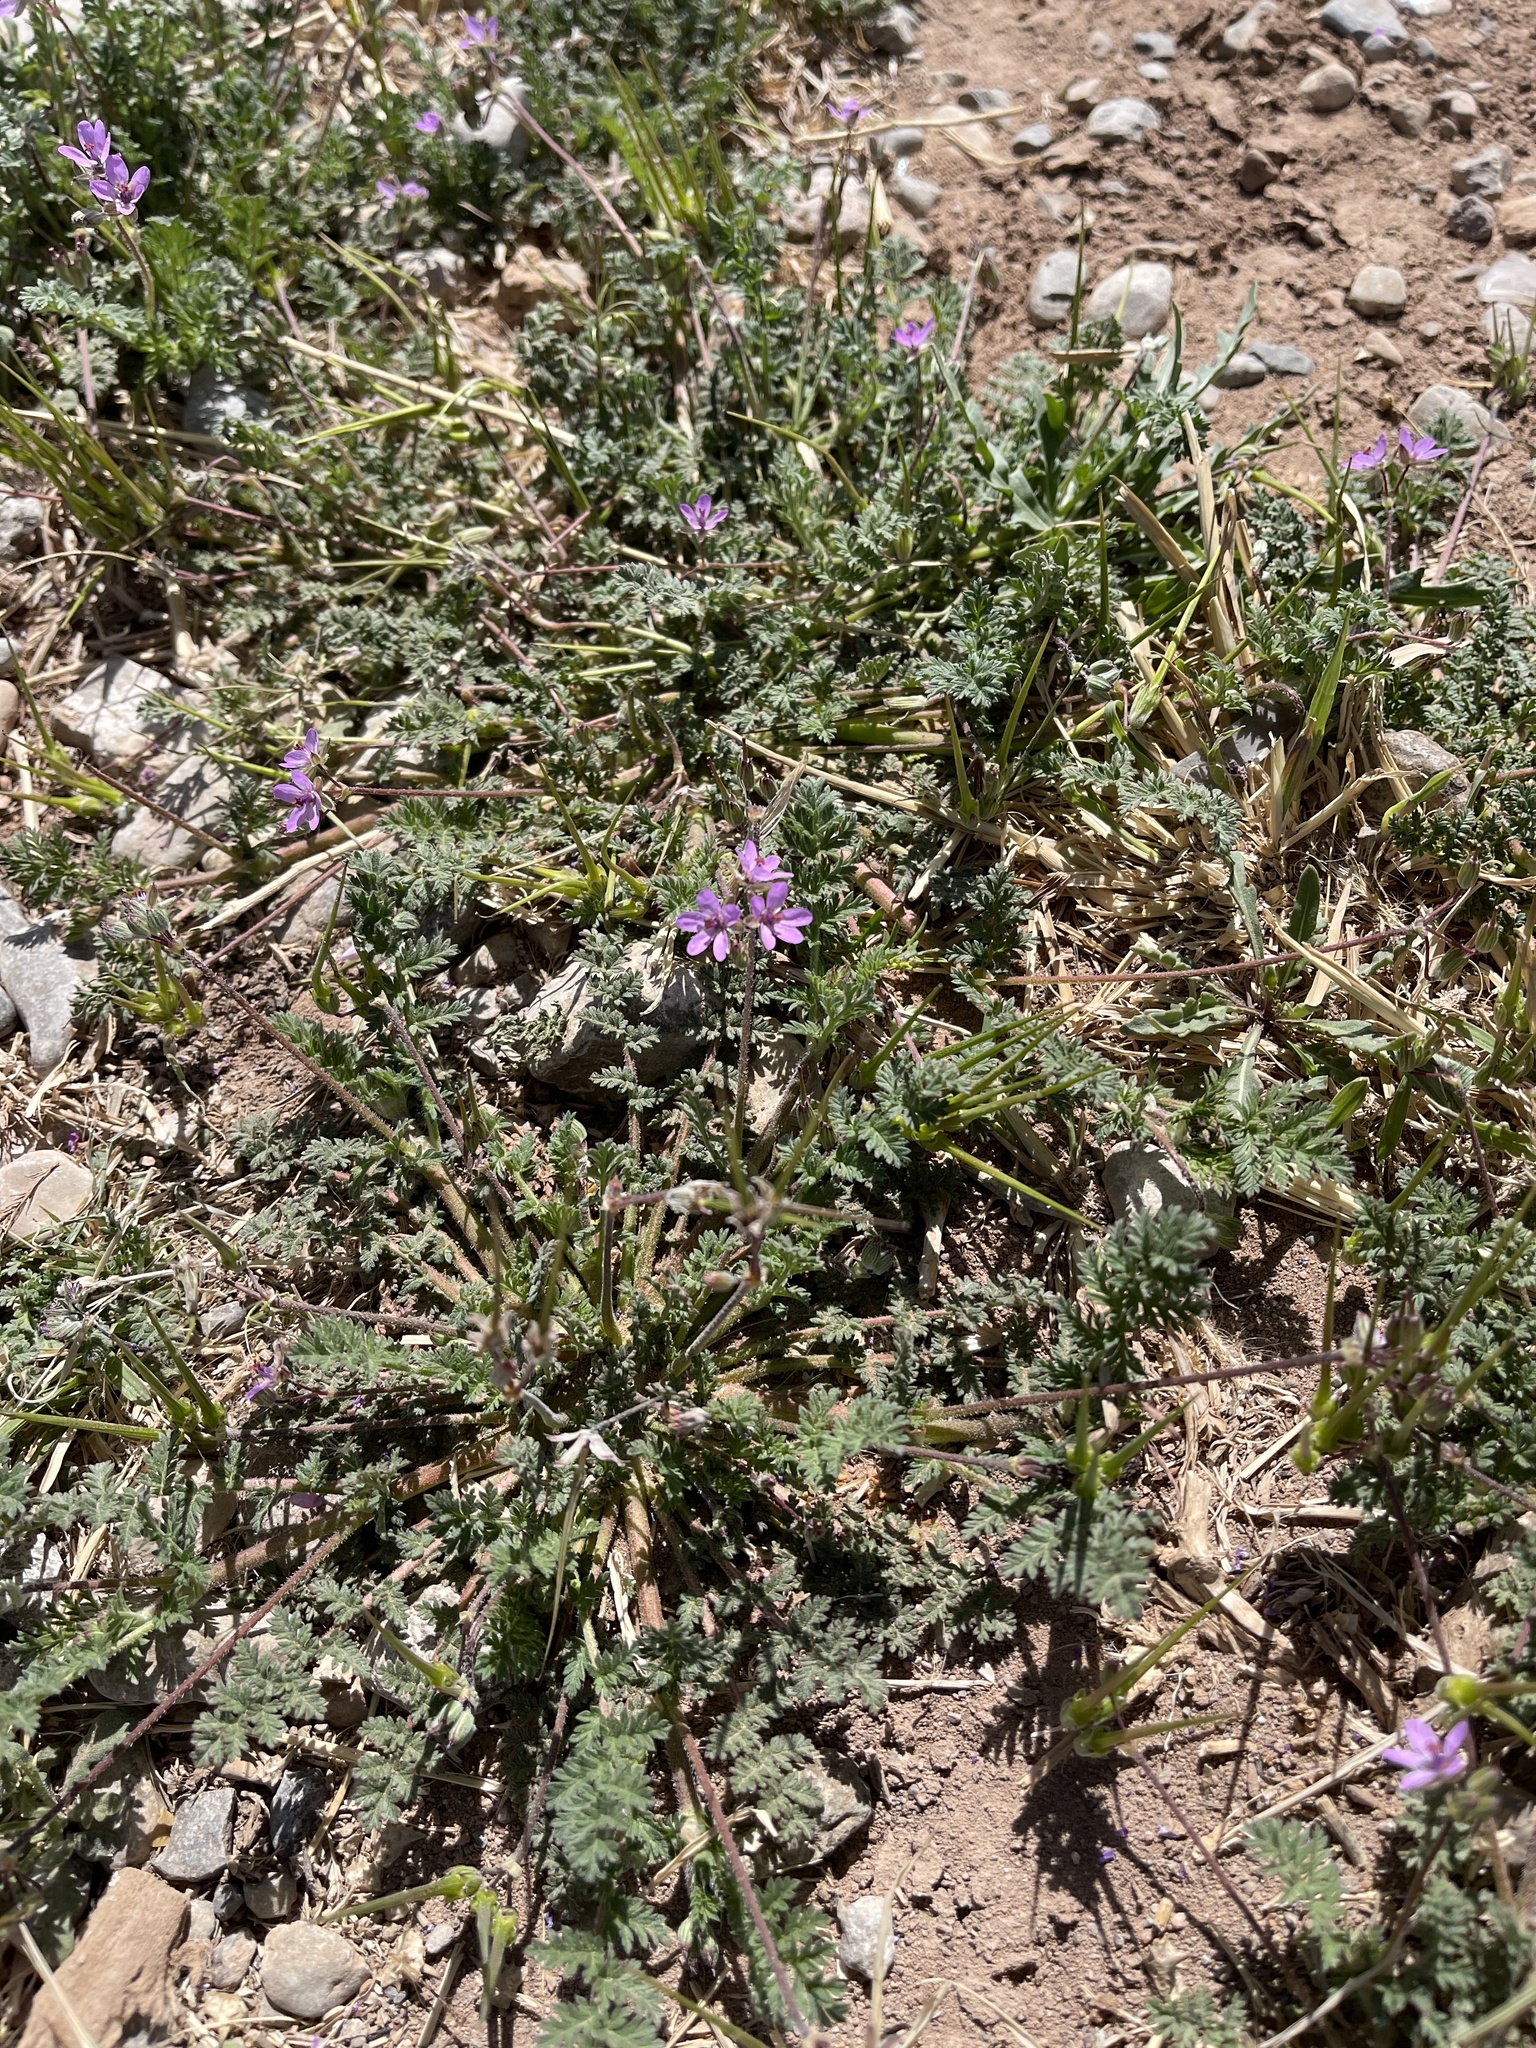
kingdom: Plantae
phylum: Tracheophyta
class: Magnoliopsida
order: Geraniales
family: Geraniaceae
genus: Erodium
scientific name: Erodium cicutarium
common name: Common stork's-bill
